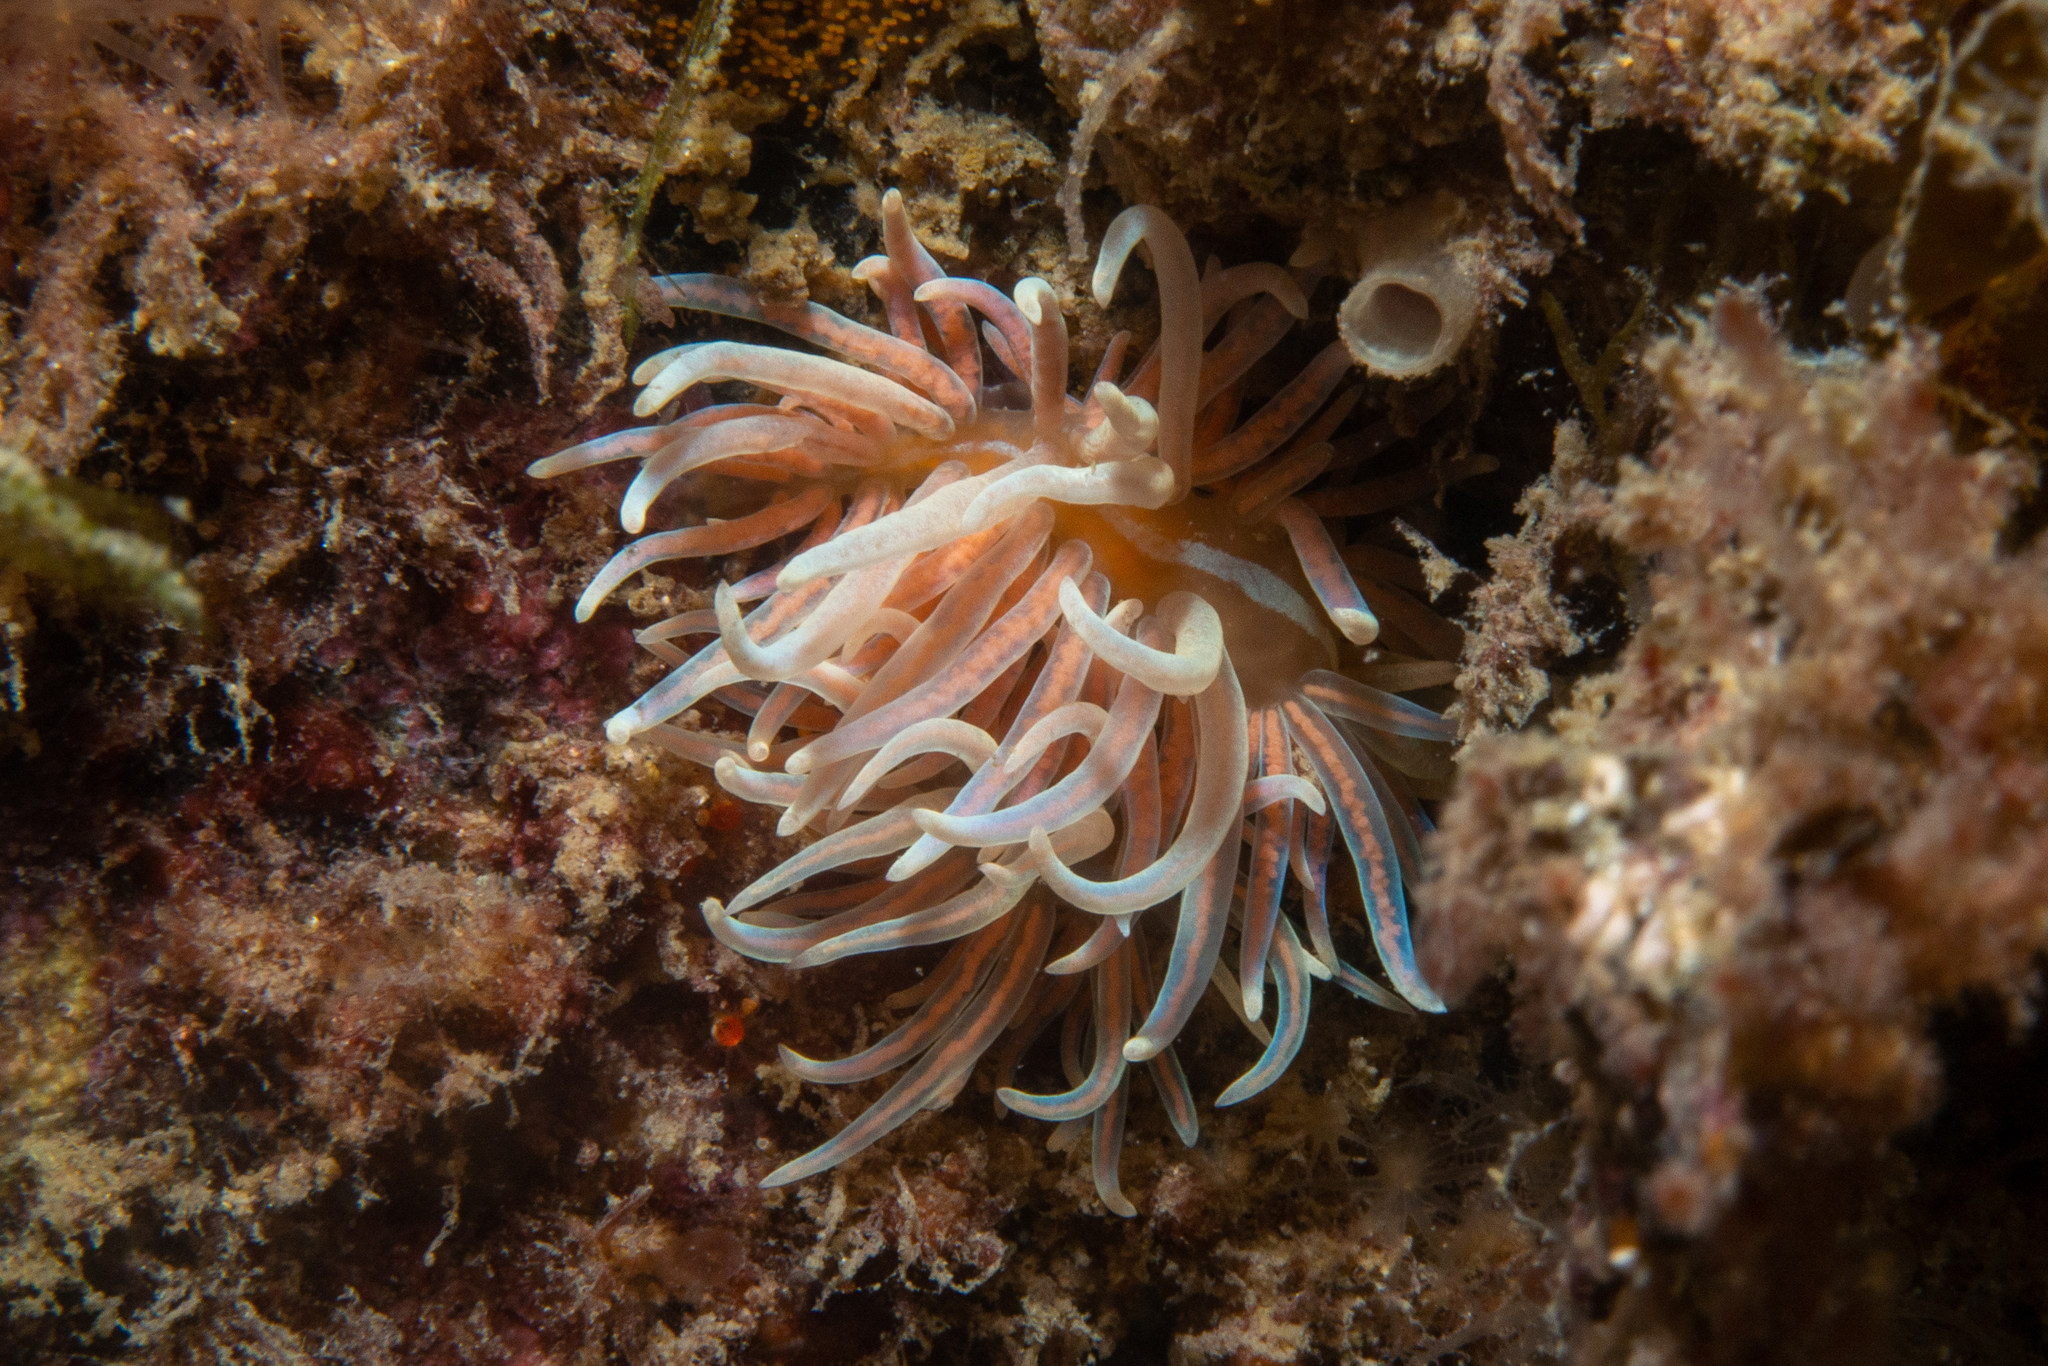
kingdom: Animalia
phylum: Mollusca
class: Gastropoda
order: Nudibranchia
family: Myrrhinidae
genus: Phyllodesmium
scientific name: Phyllodesmium serratum
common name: Coral nudibranch
